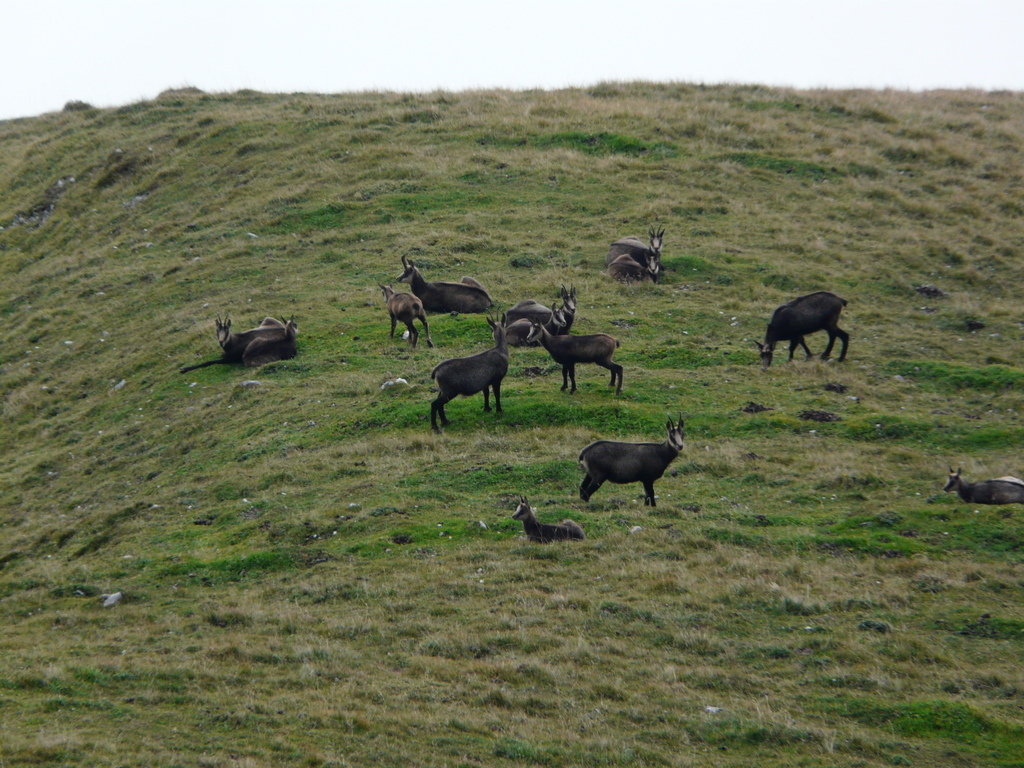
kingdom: Animalia
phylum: Chordata
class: Mammalia
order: Artiodactyla
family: Bovidae
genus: Rupicapra
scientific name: Rupicapra rupicapra
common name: Chamois
